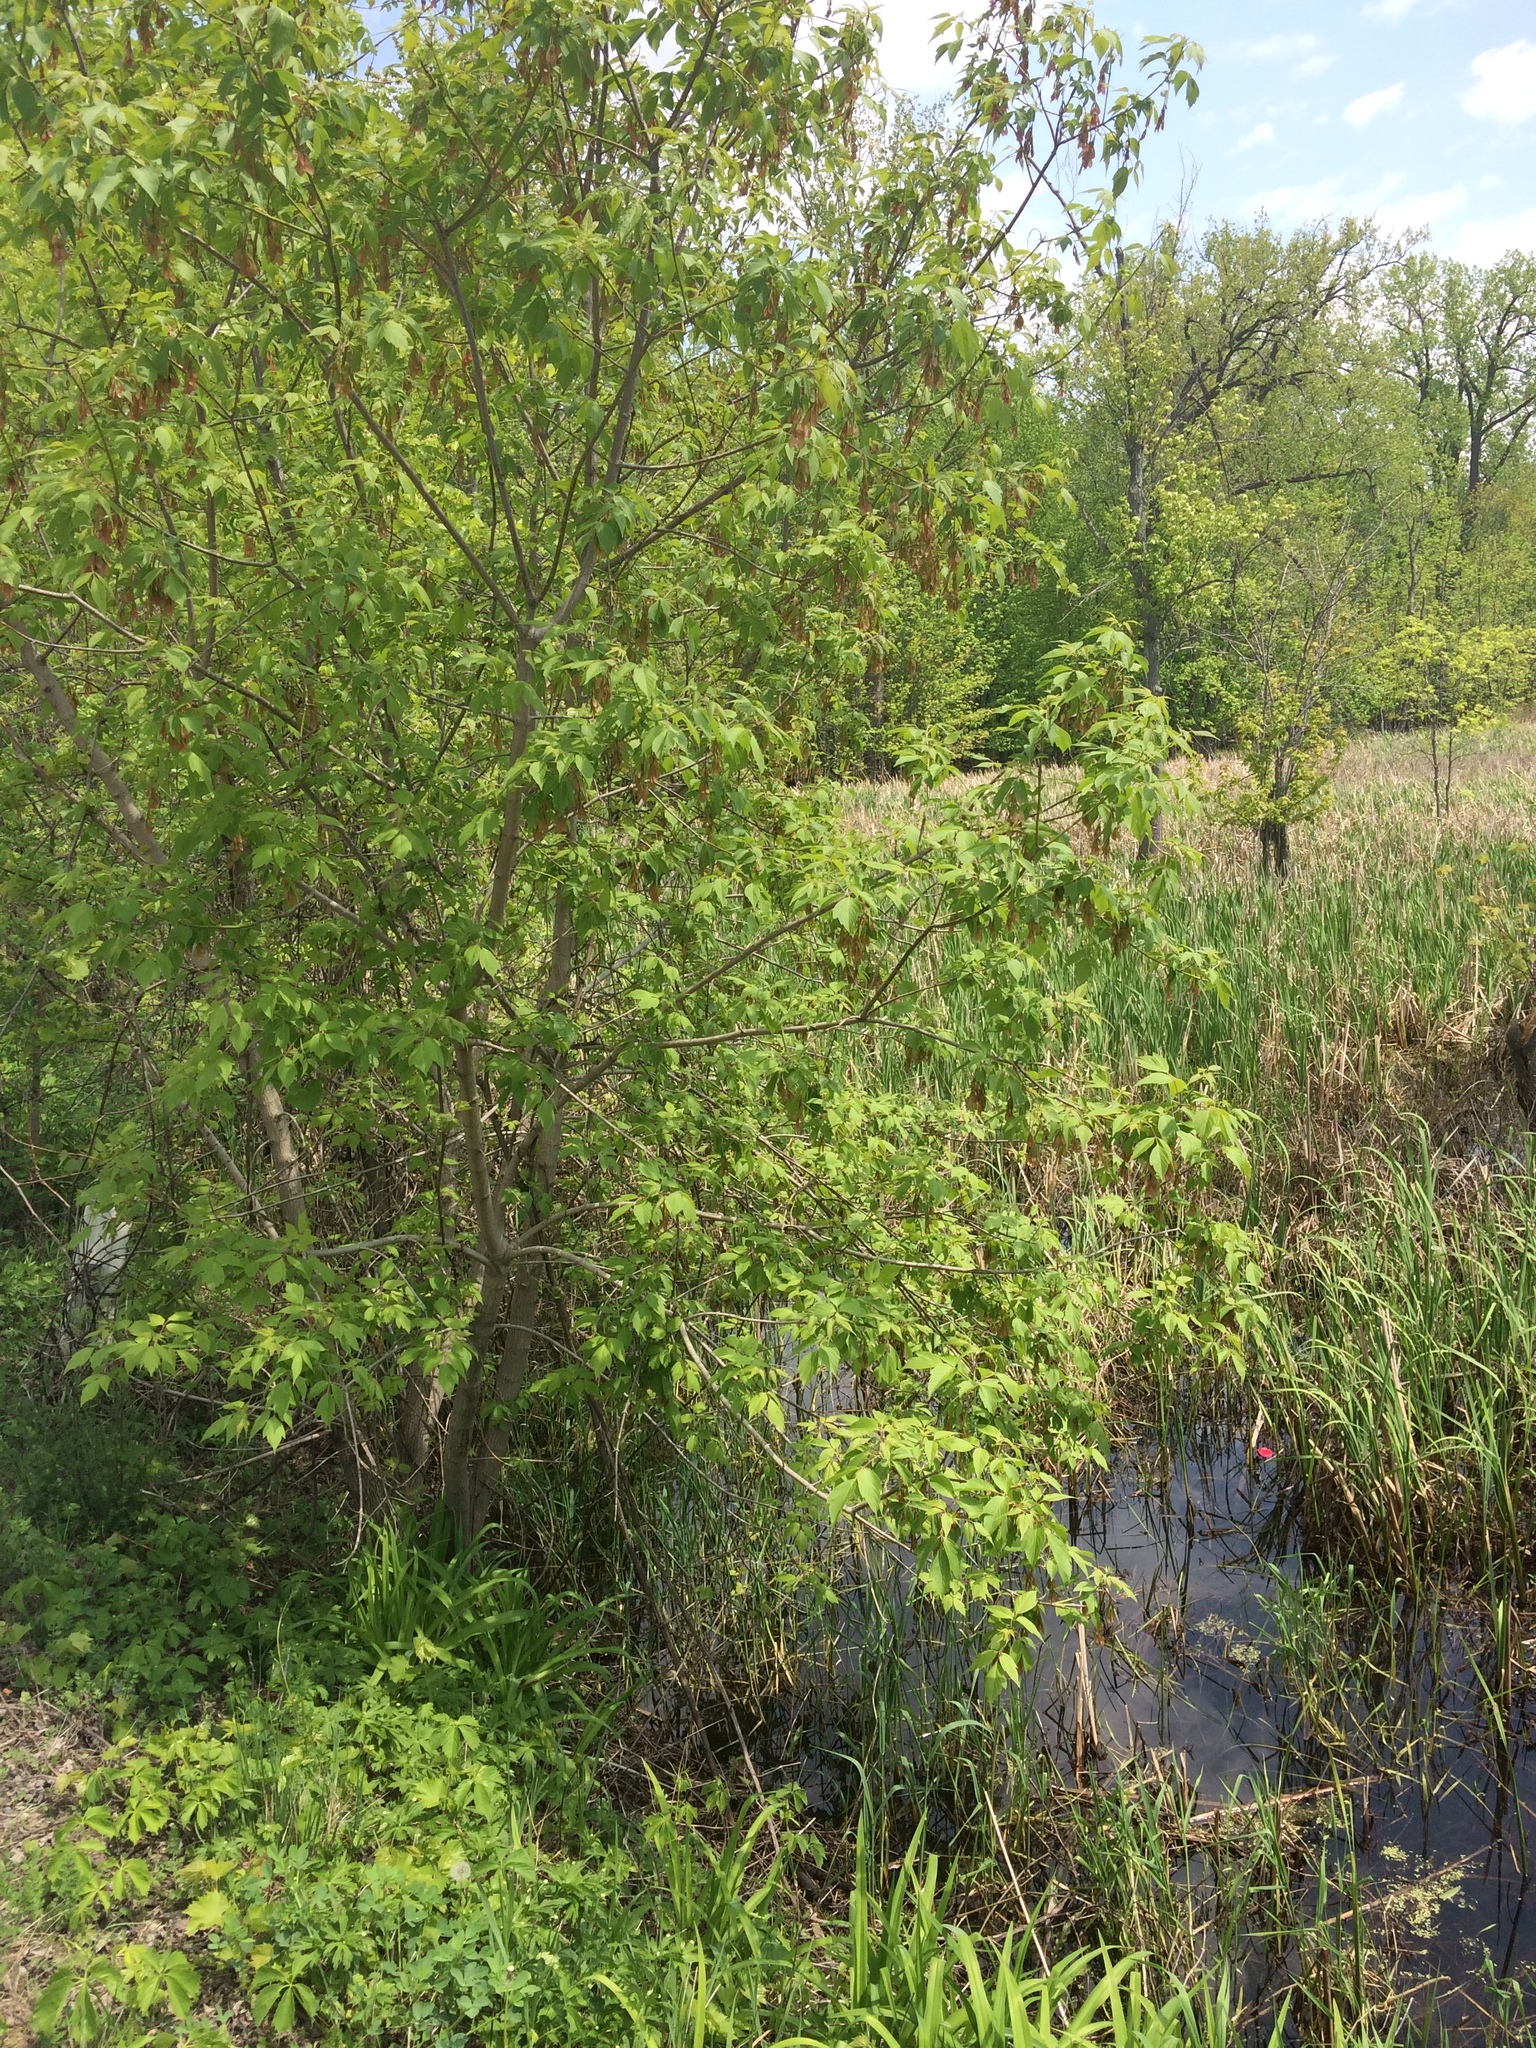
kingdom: Plantae
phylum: Tracheophyta
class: Magnoliopsida
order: Sapindales
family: Sapindaceae
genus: Acer
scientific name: Acer negundo
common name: Ashleaf maple
